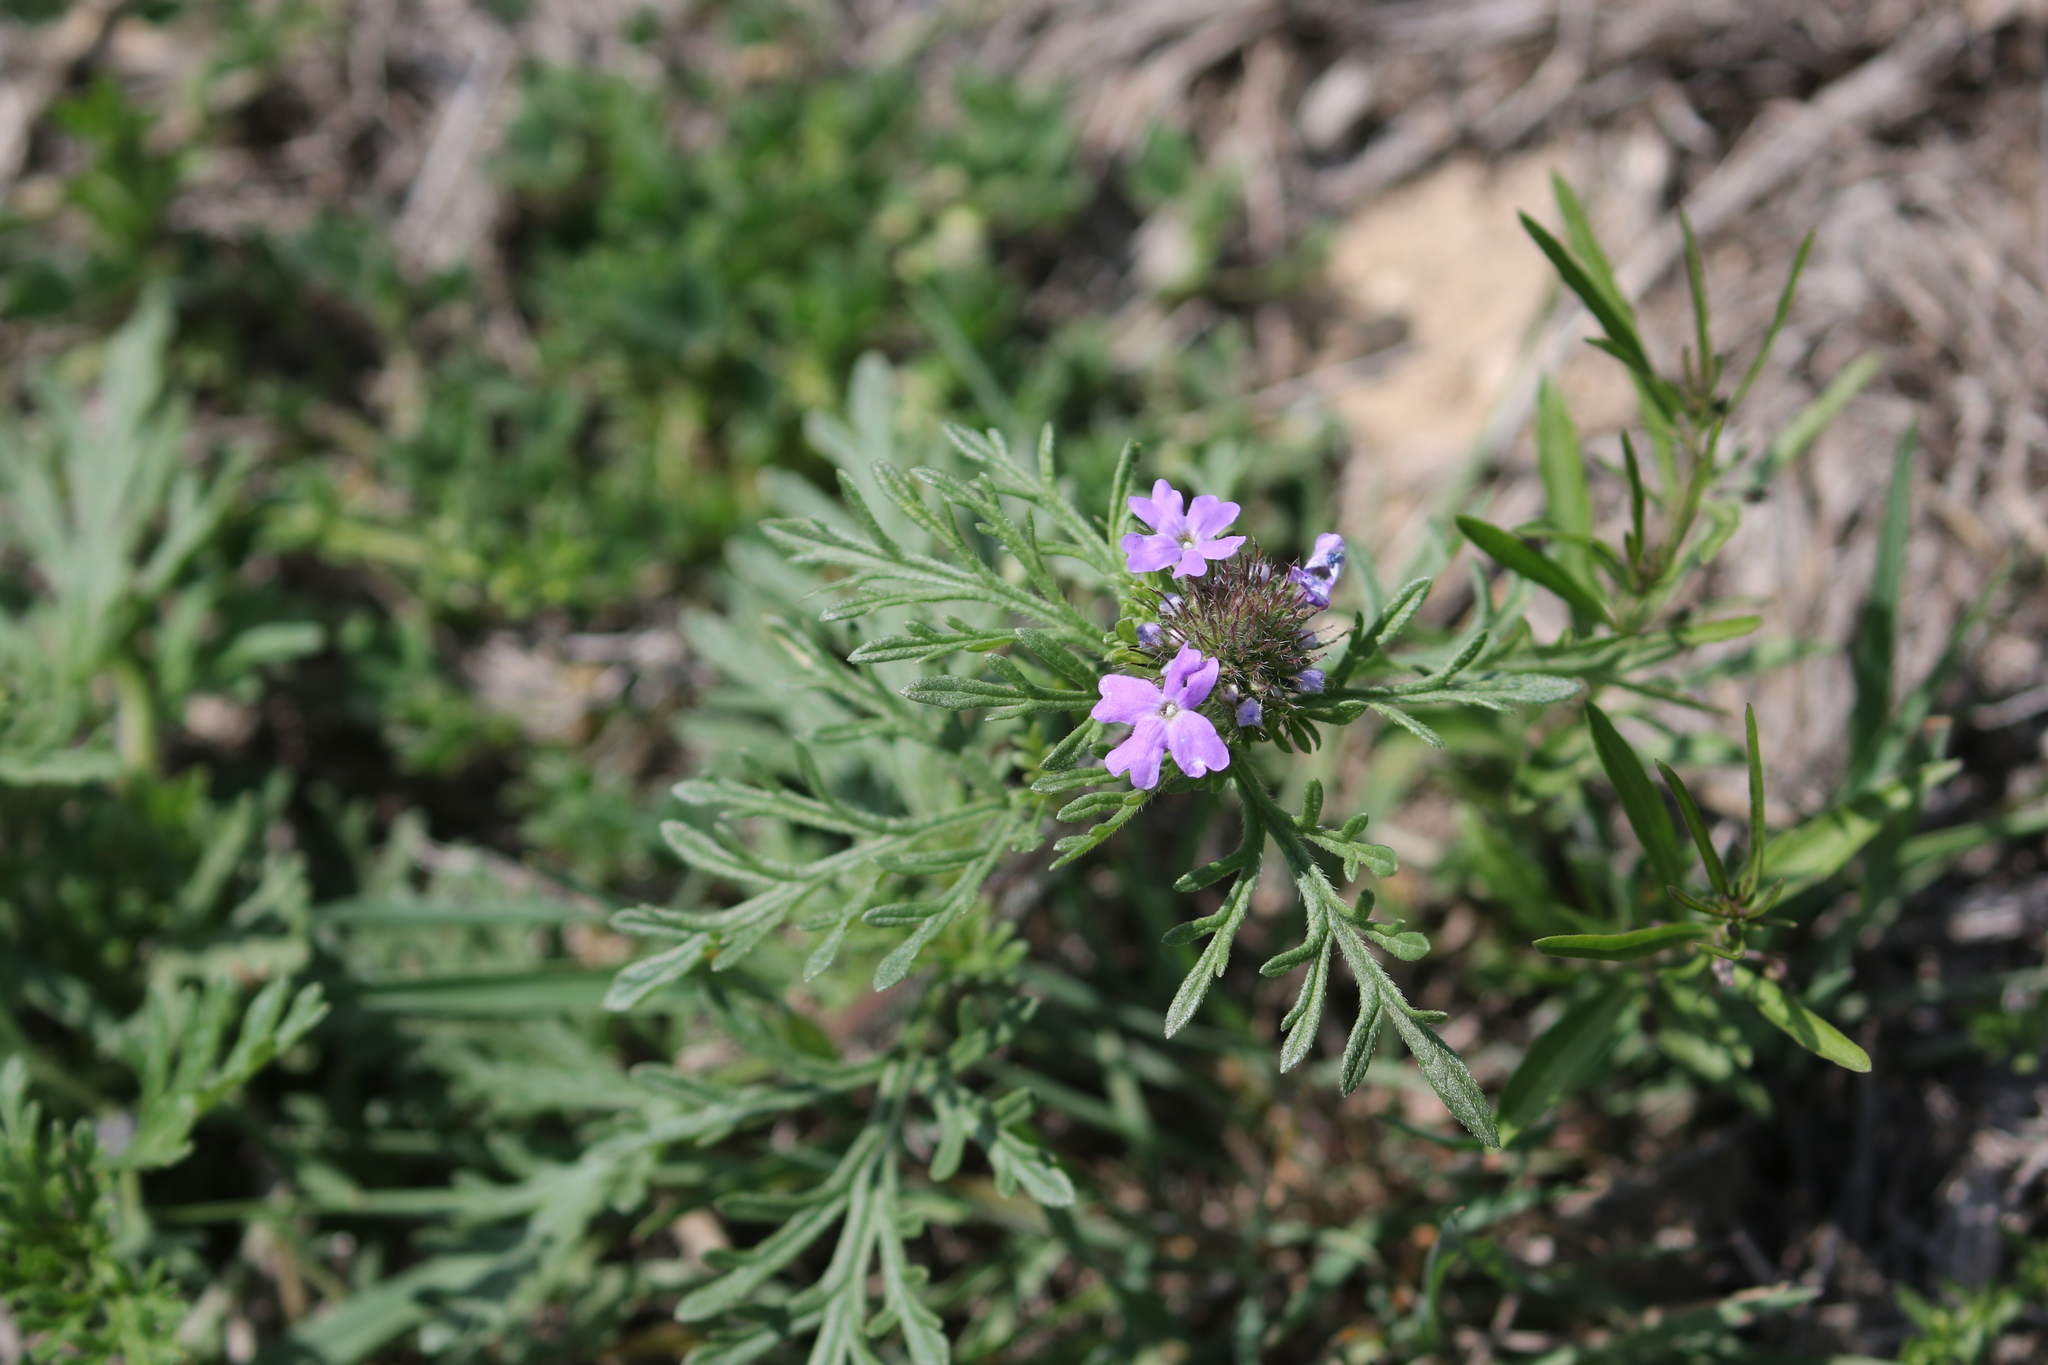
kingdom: Plantae
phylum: Tracheophyta
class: Magnoliopsida
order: Lamiales
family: Verbenaceae
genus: Verbena
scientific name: Verbena bipinnatifida
